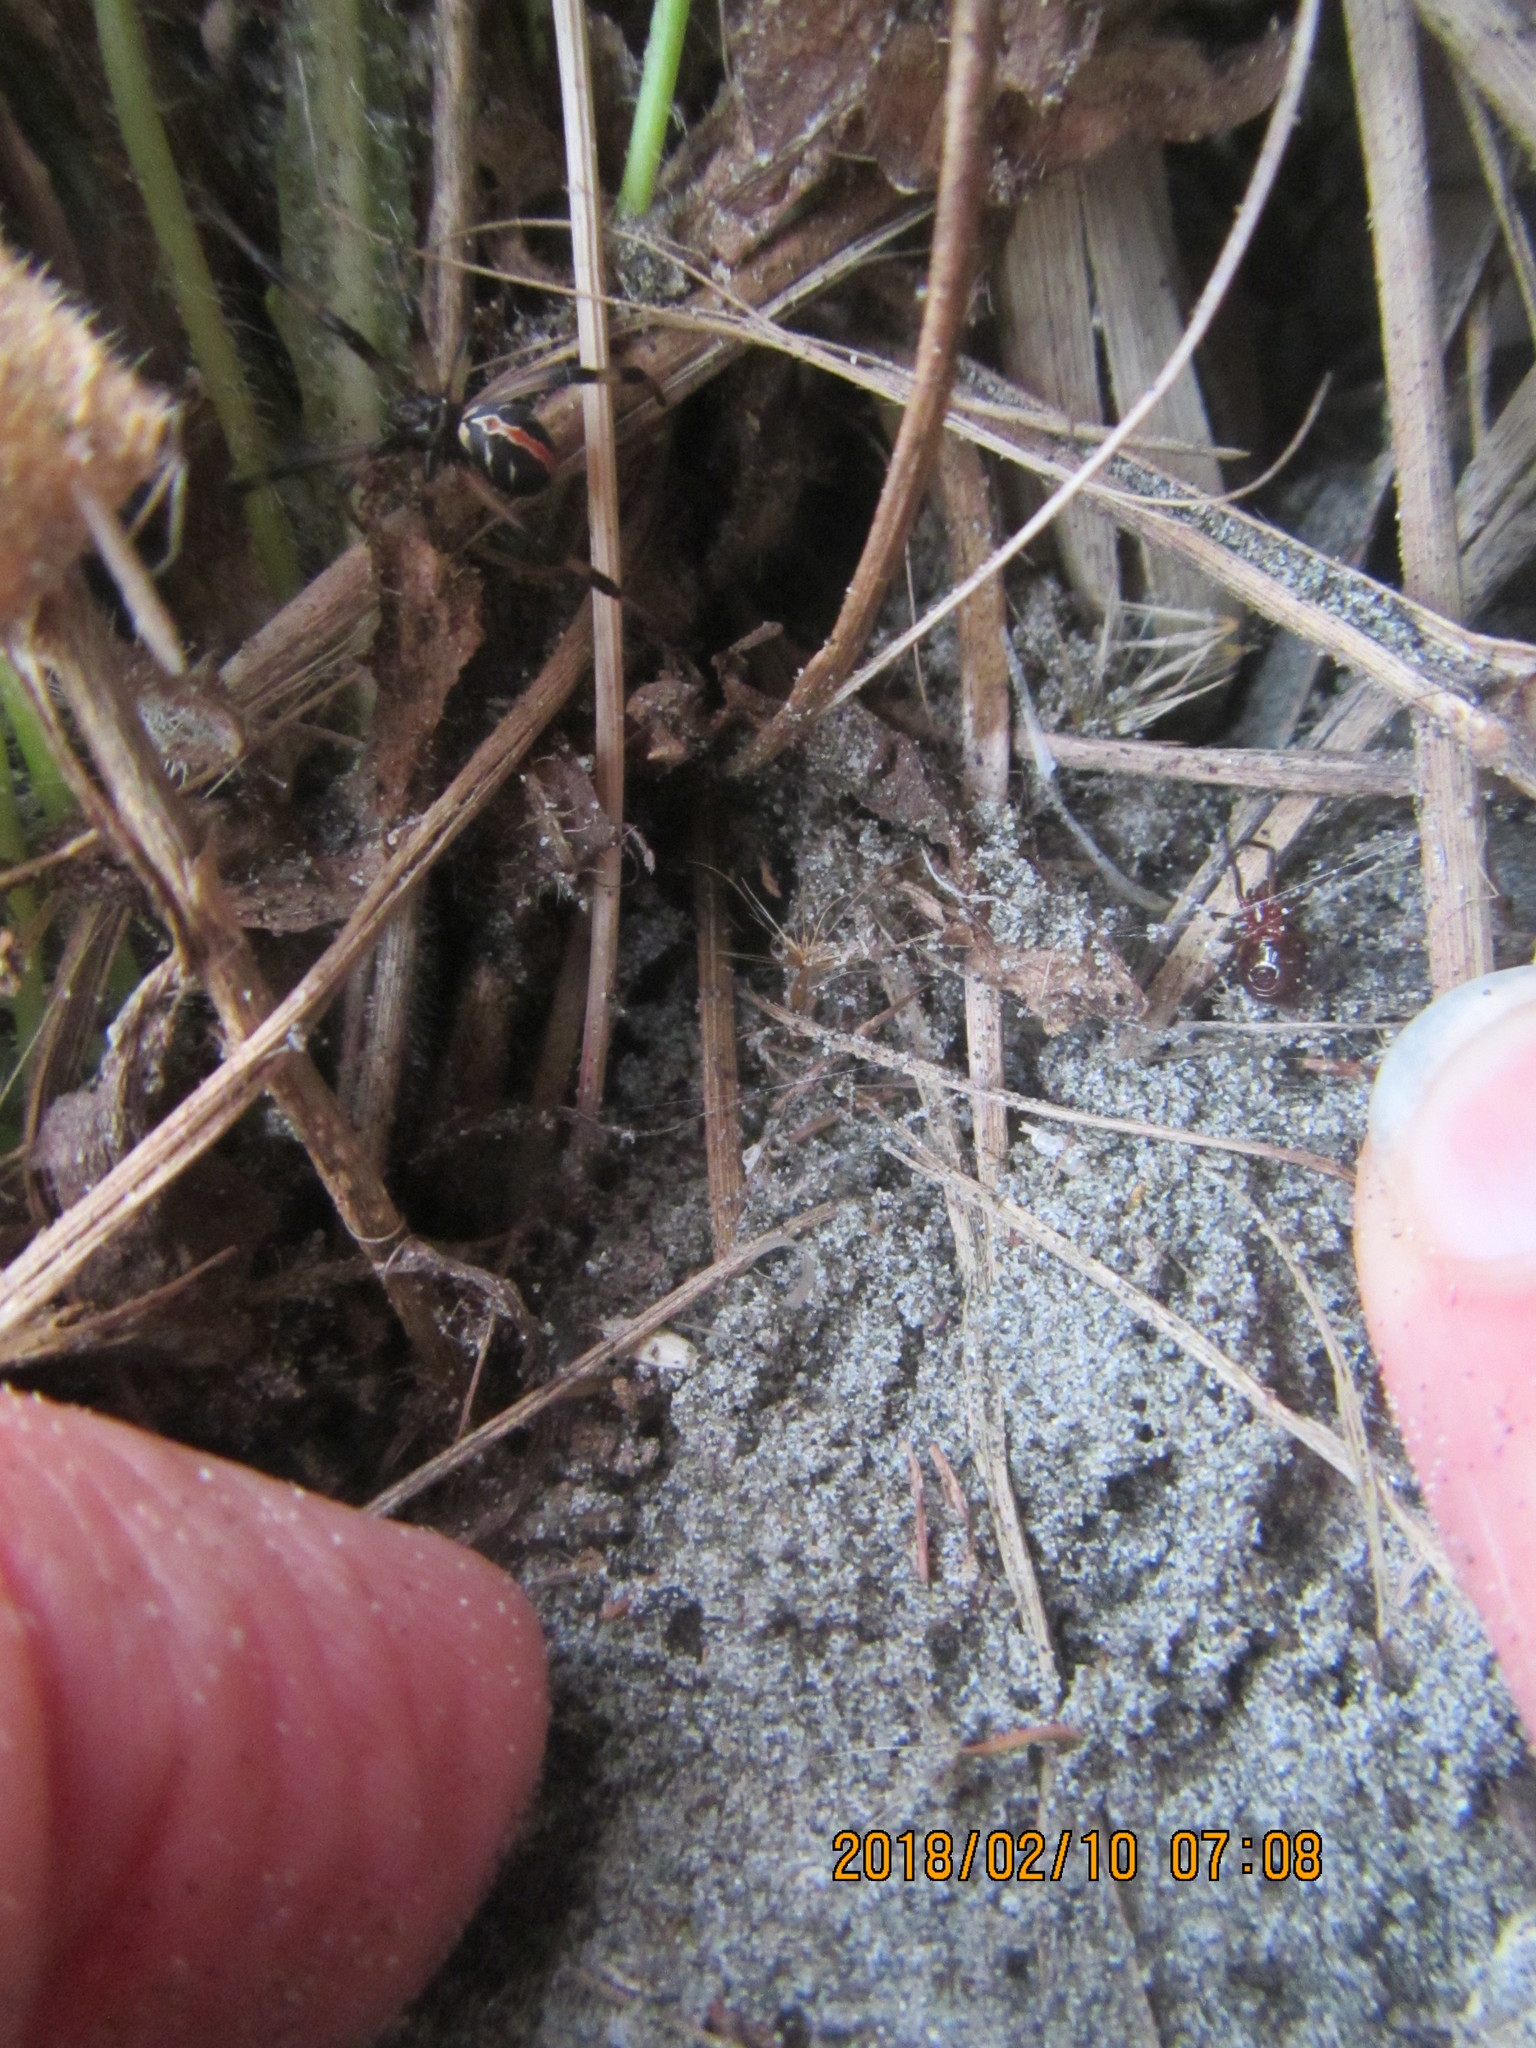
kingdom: Animalia
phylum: Arthropoda
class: Arachnida
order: Araneae
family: Theridiidae
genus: Latrodectus
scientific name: Latrodectus katipo
